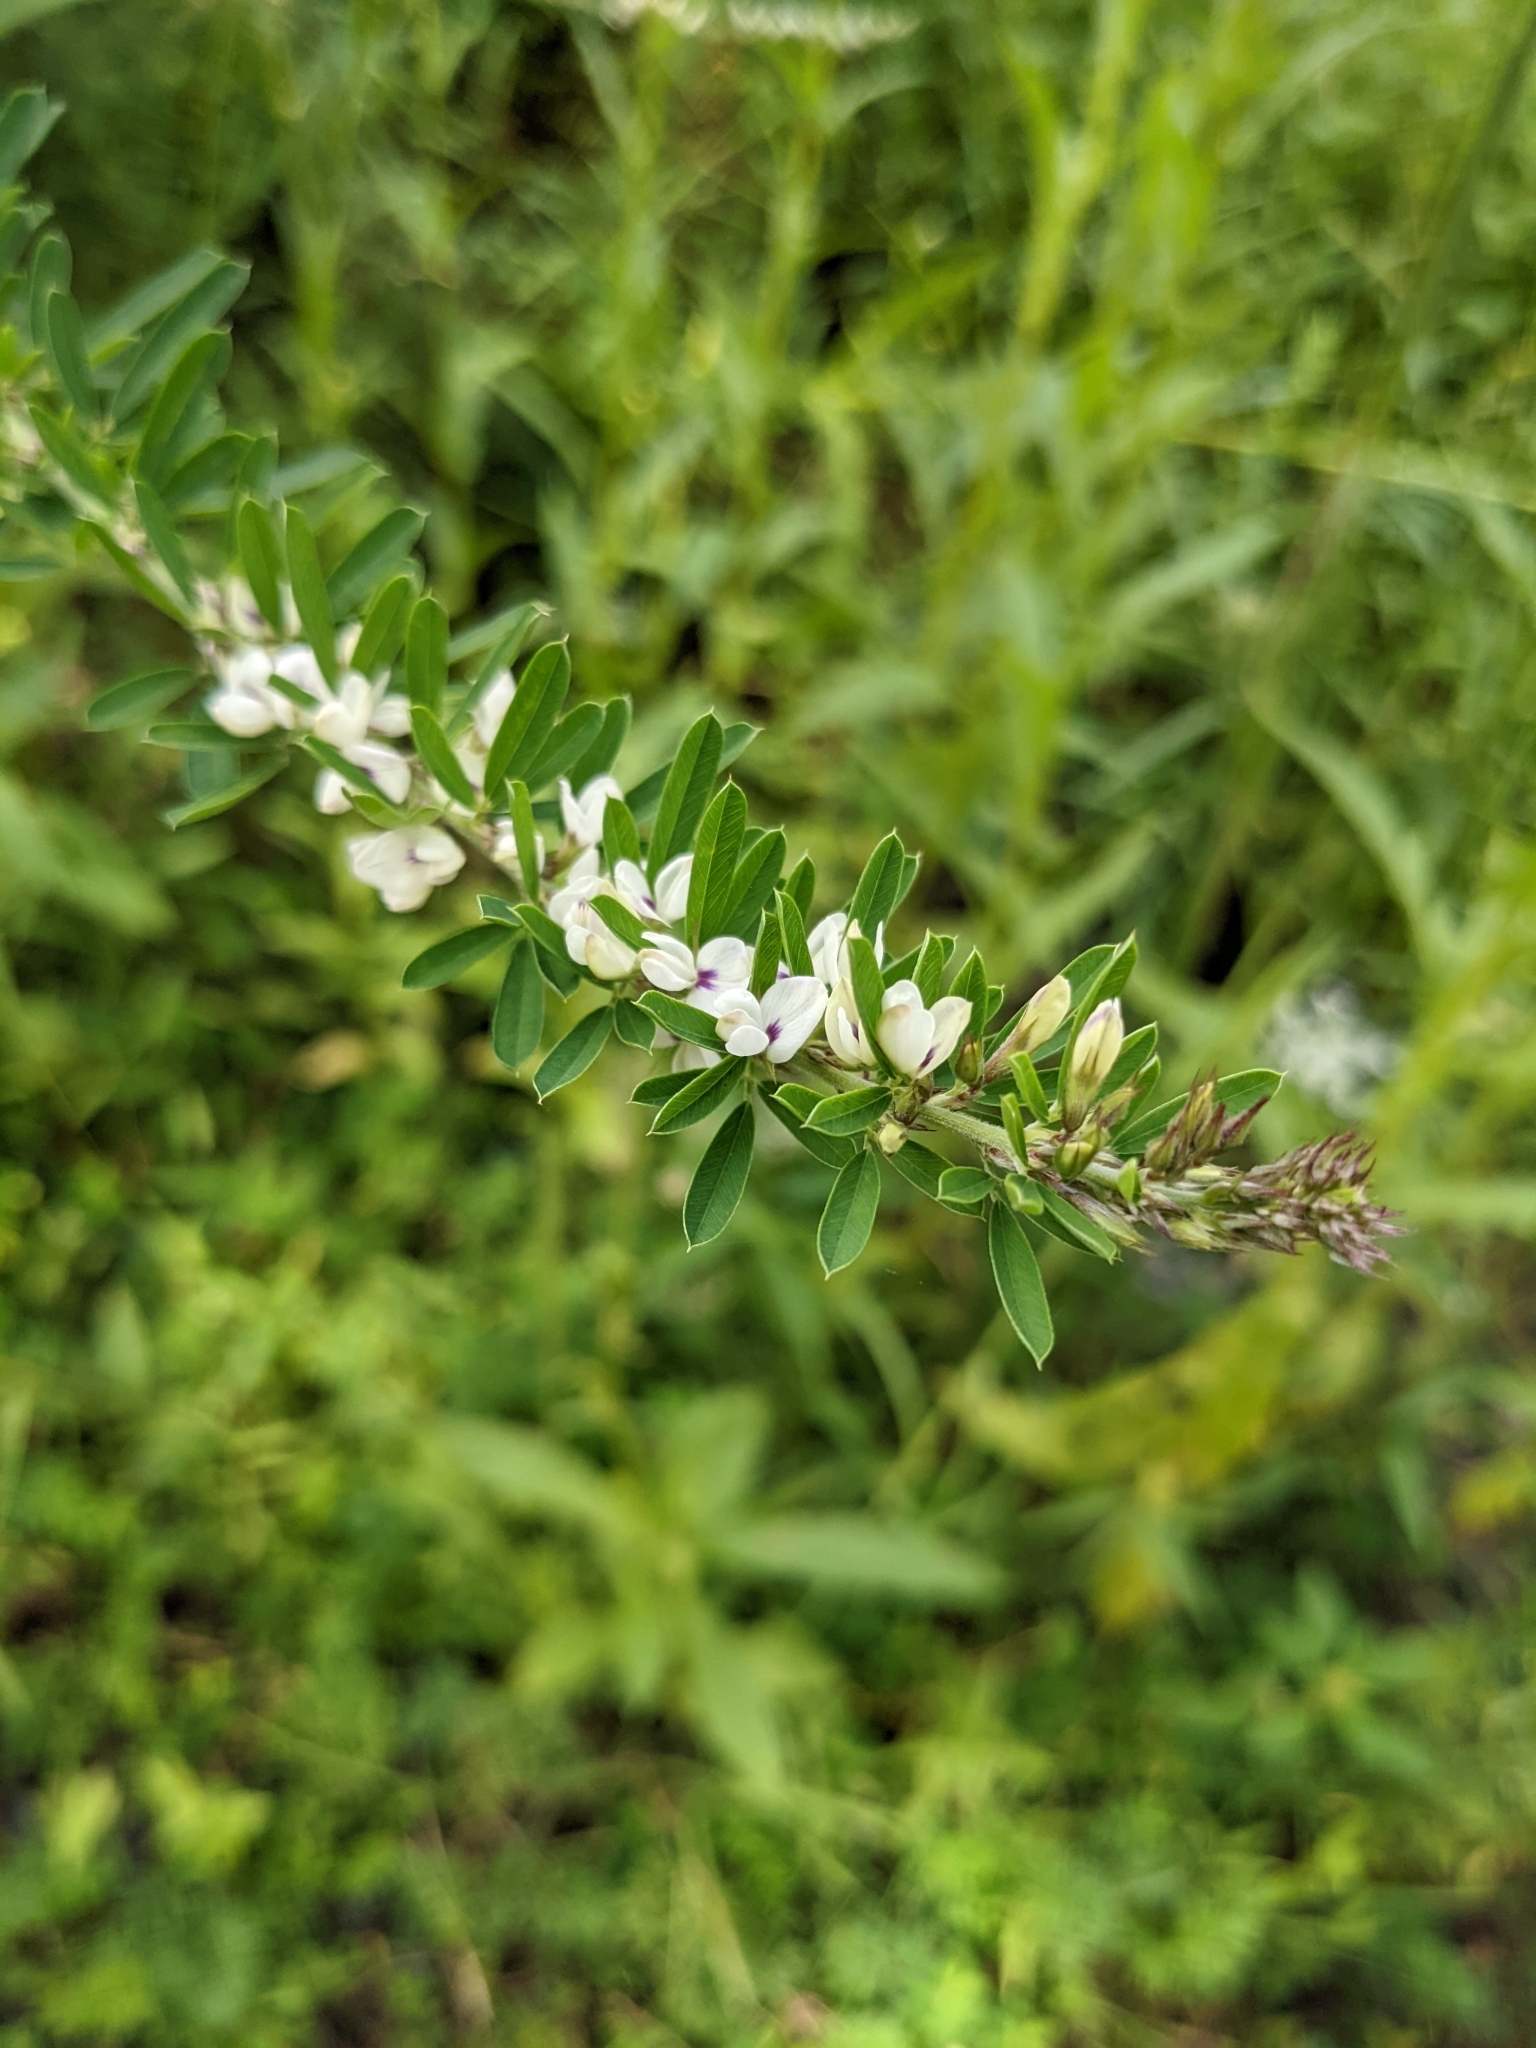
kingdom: Plantae
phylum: Tracheophyta
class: Magnoliopsida
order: Fabales
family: Fabaceae
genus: Lespedeza
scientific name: Lespedeza cuneata
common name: Chinese bush-clover
